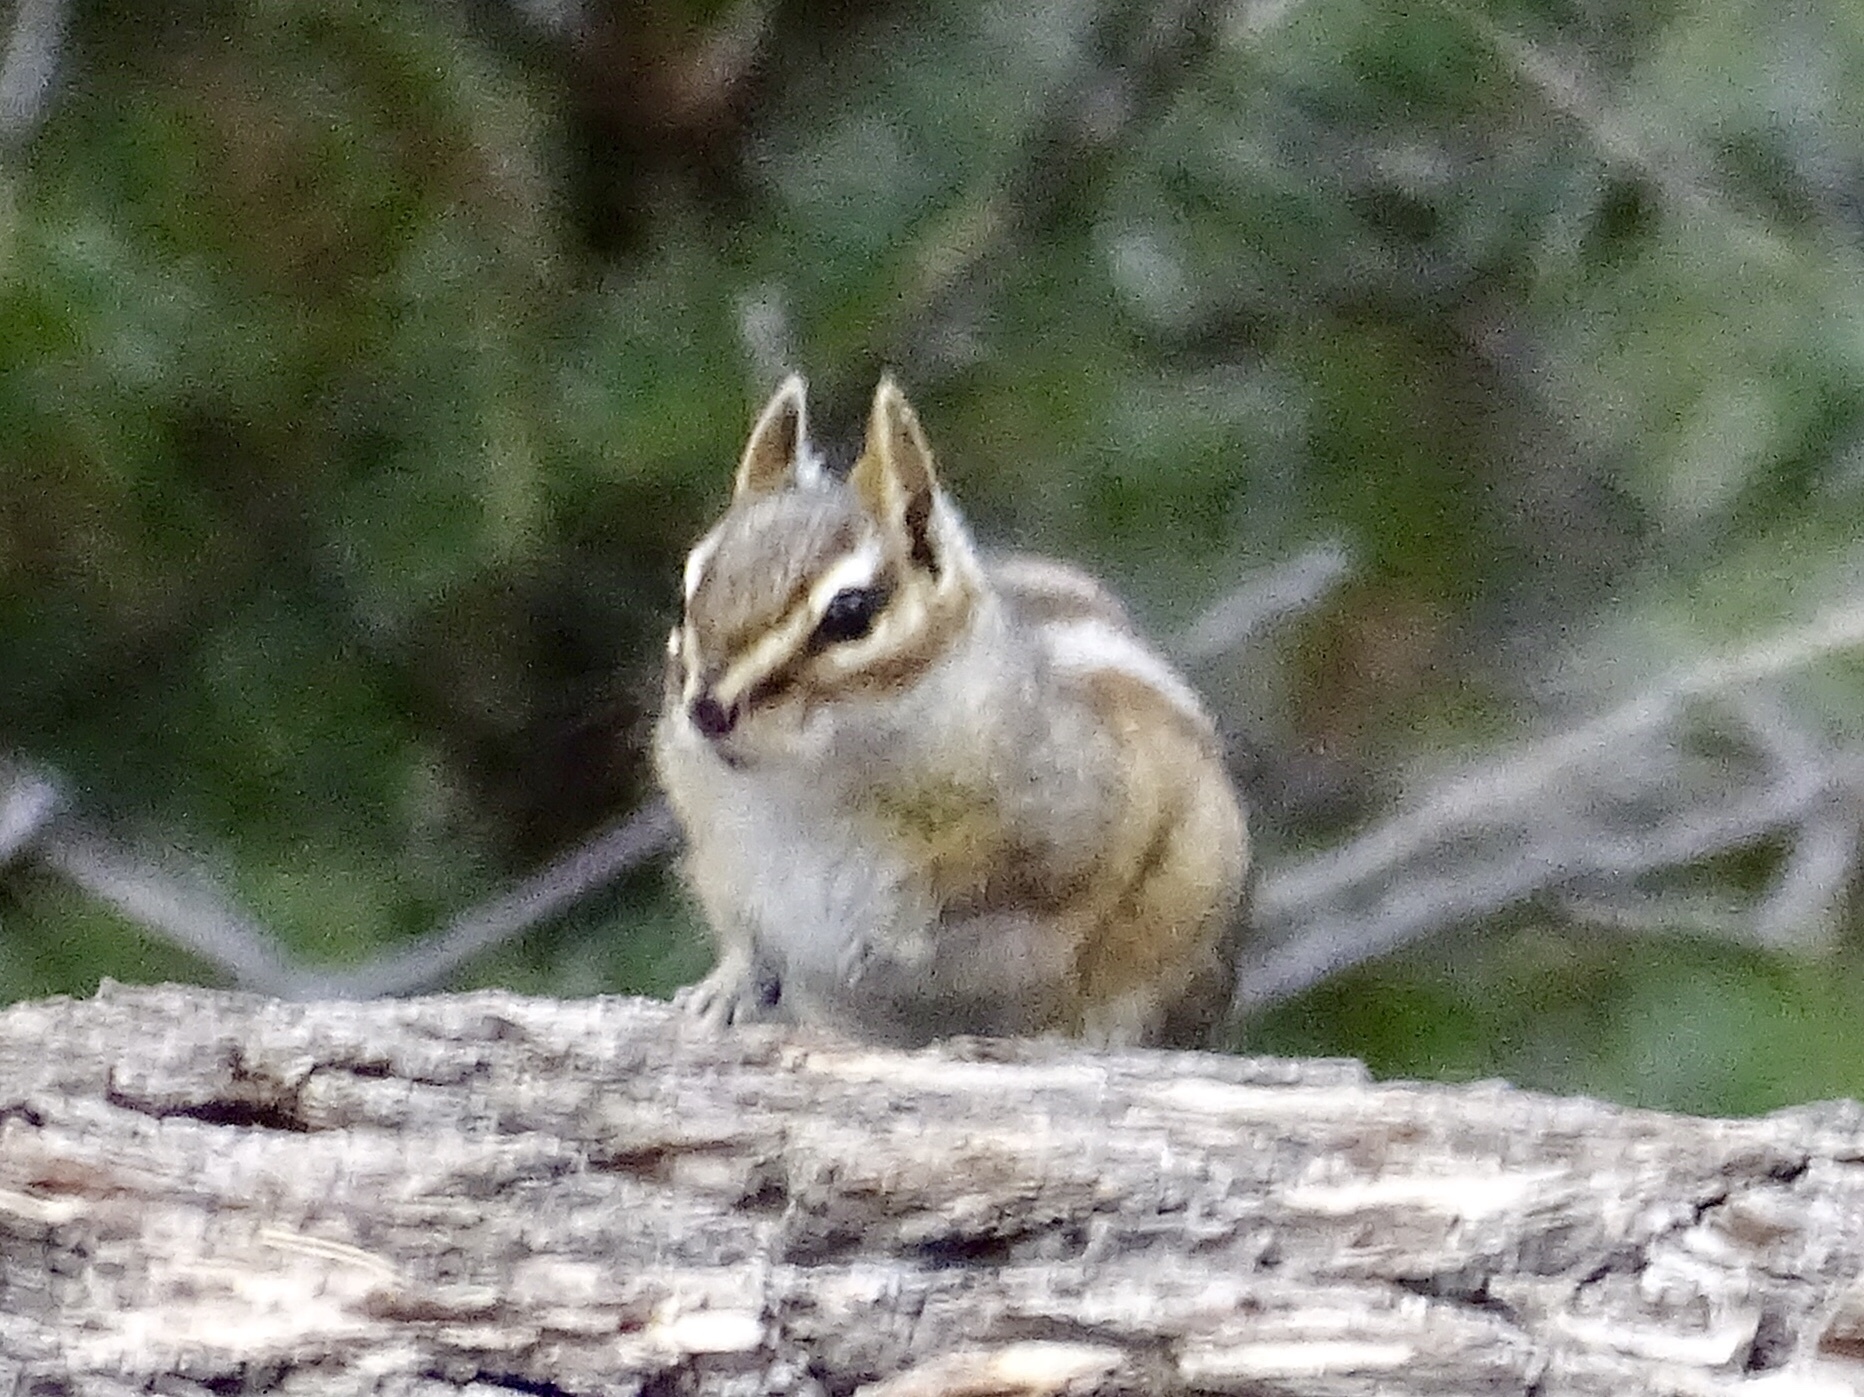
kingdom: Animalia
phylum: Chordata
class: Mammalia
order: Rodentia
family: Sciuridae
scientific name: Sciuridae
